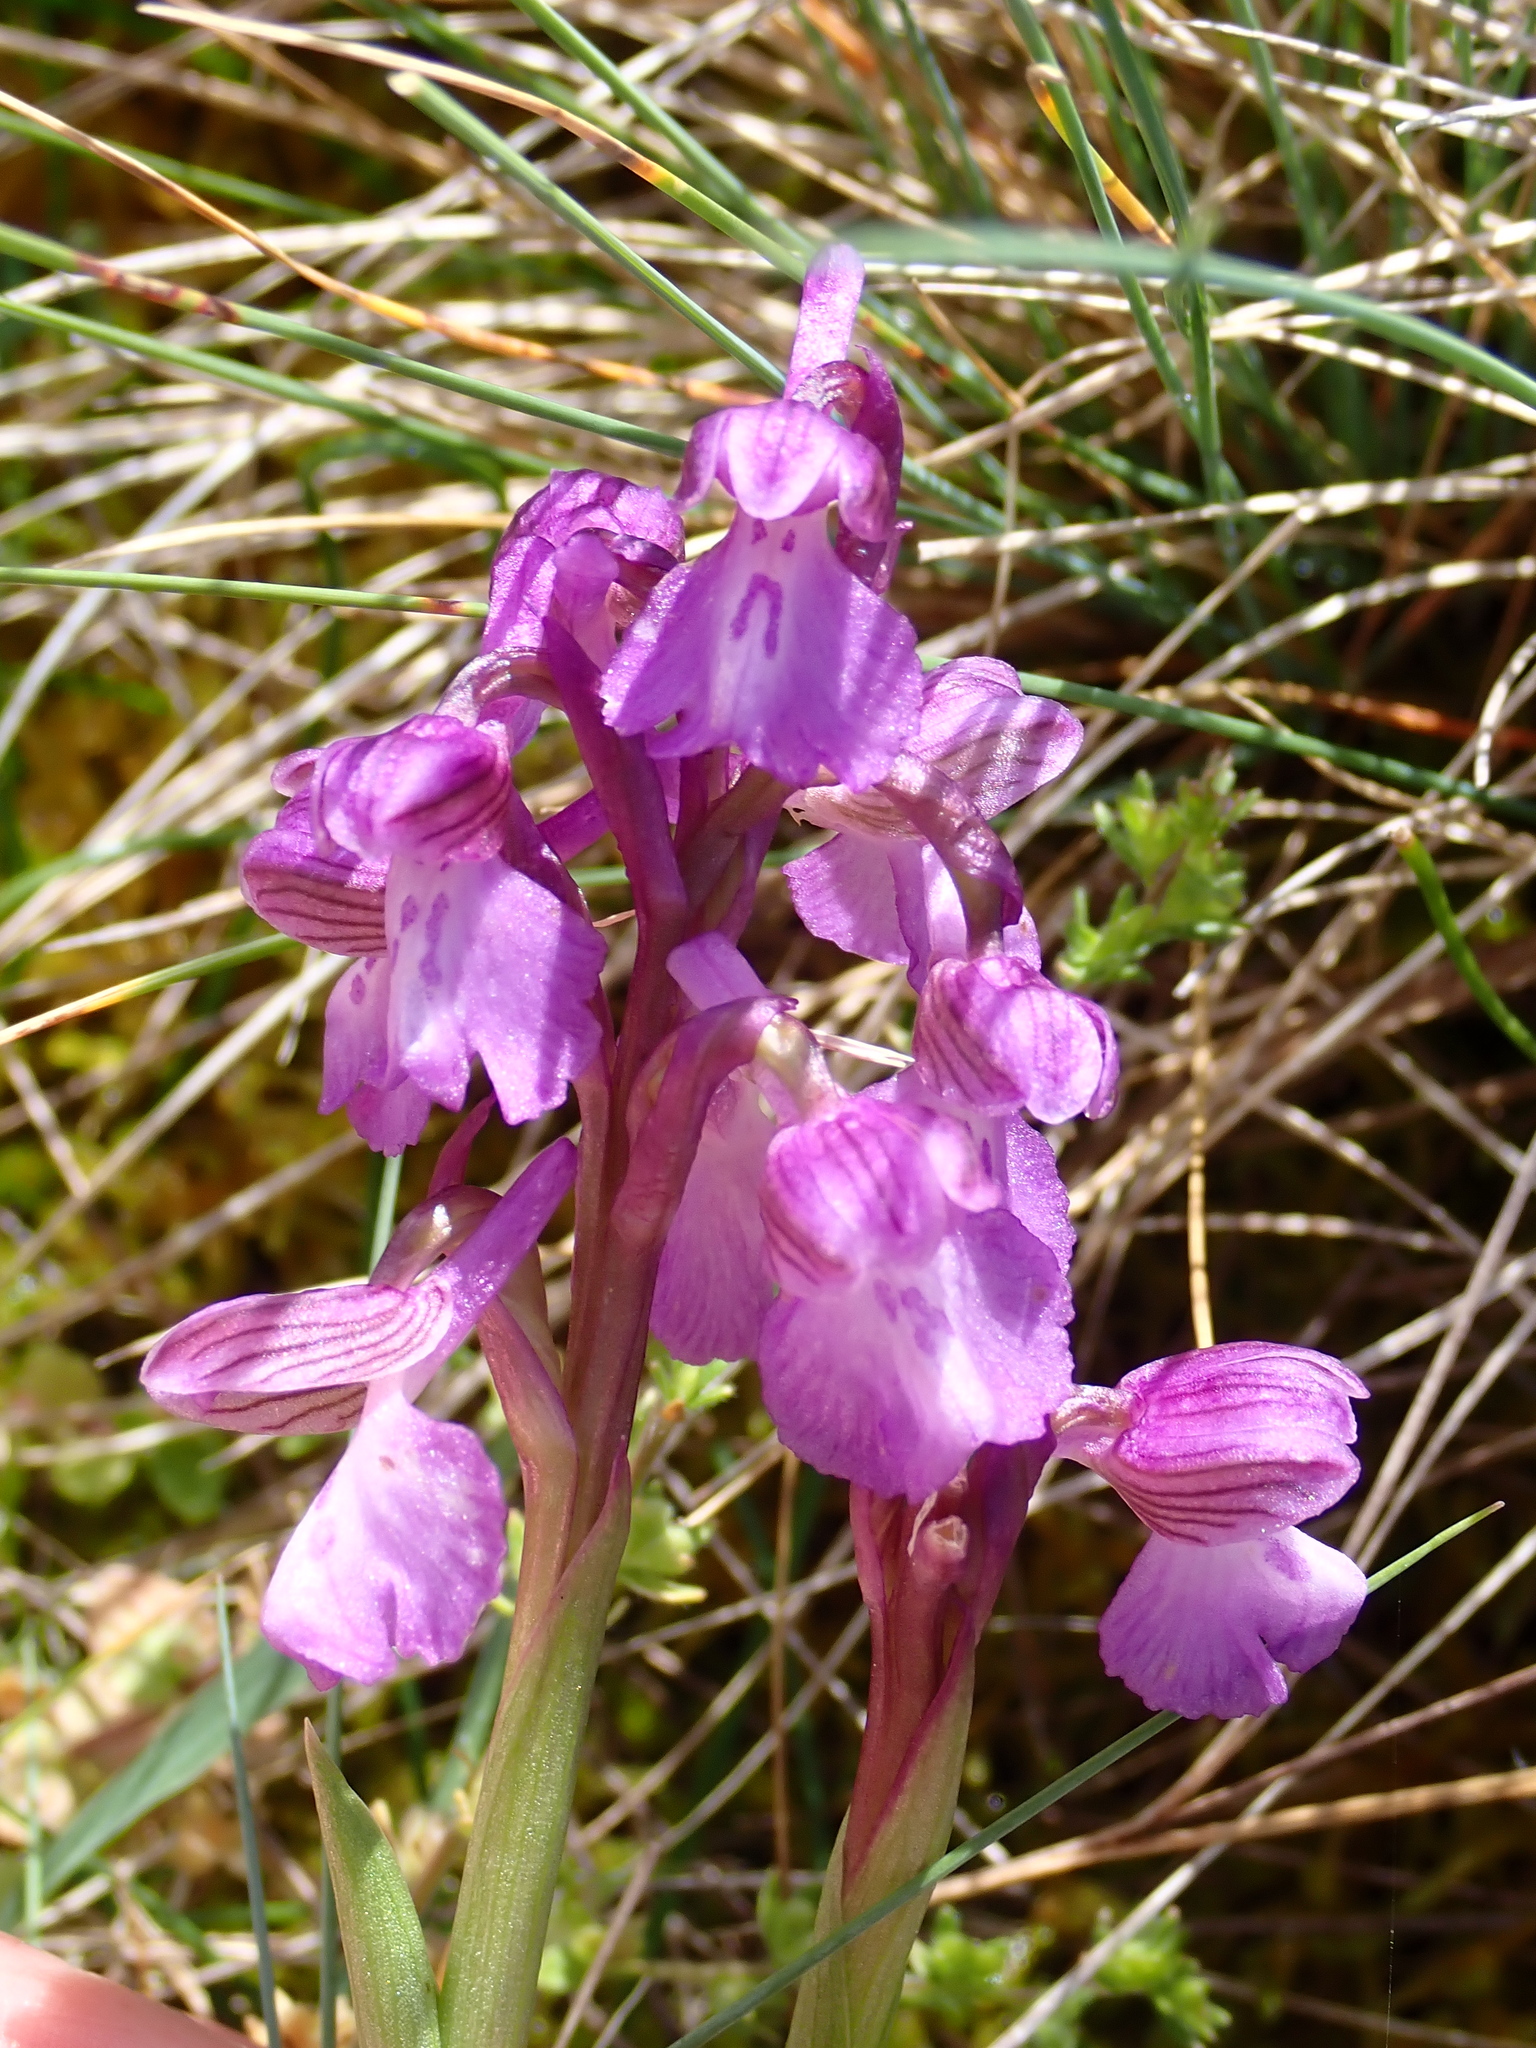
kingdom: Plantae
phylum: Tracheophyta
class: Liliopsida
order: Asparagales
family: Orchidaceae
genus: Anacamptis
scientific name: Anacamptis morio
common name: Green-winged orchid
